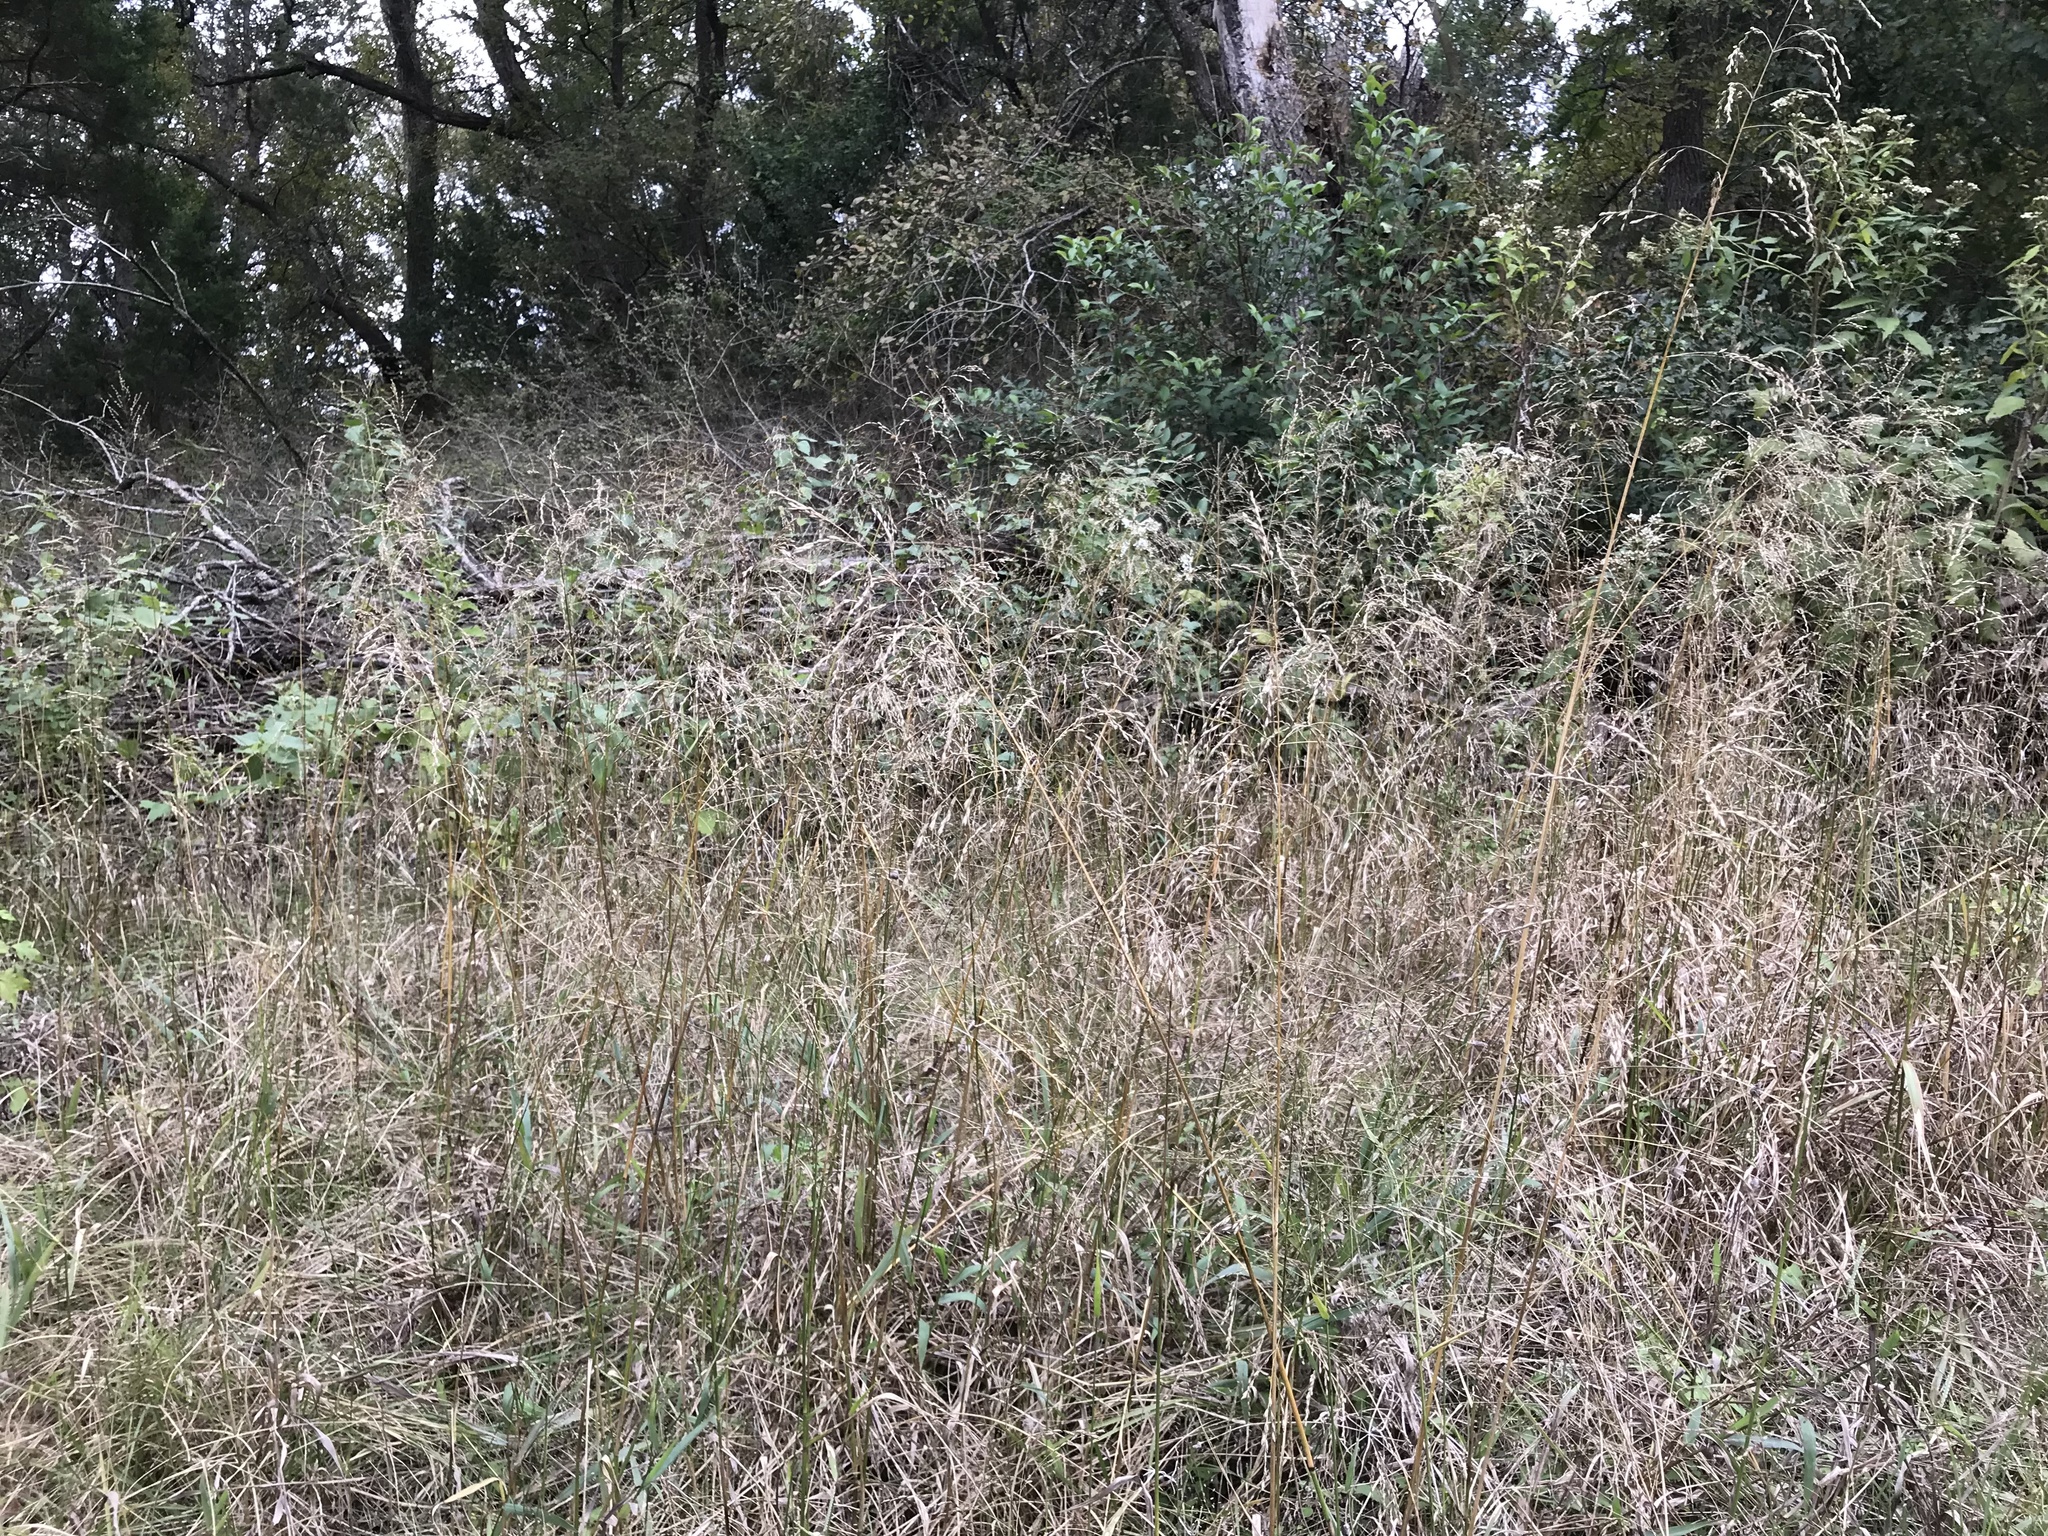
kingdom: Plantae
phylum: Tracheophyta
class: Liliopsida
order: Poales
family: Poaceae
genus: Tridens
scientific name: Tridens flavus
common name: Purpletop
